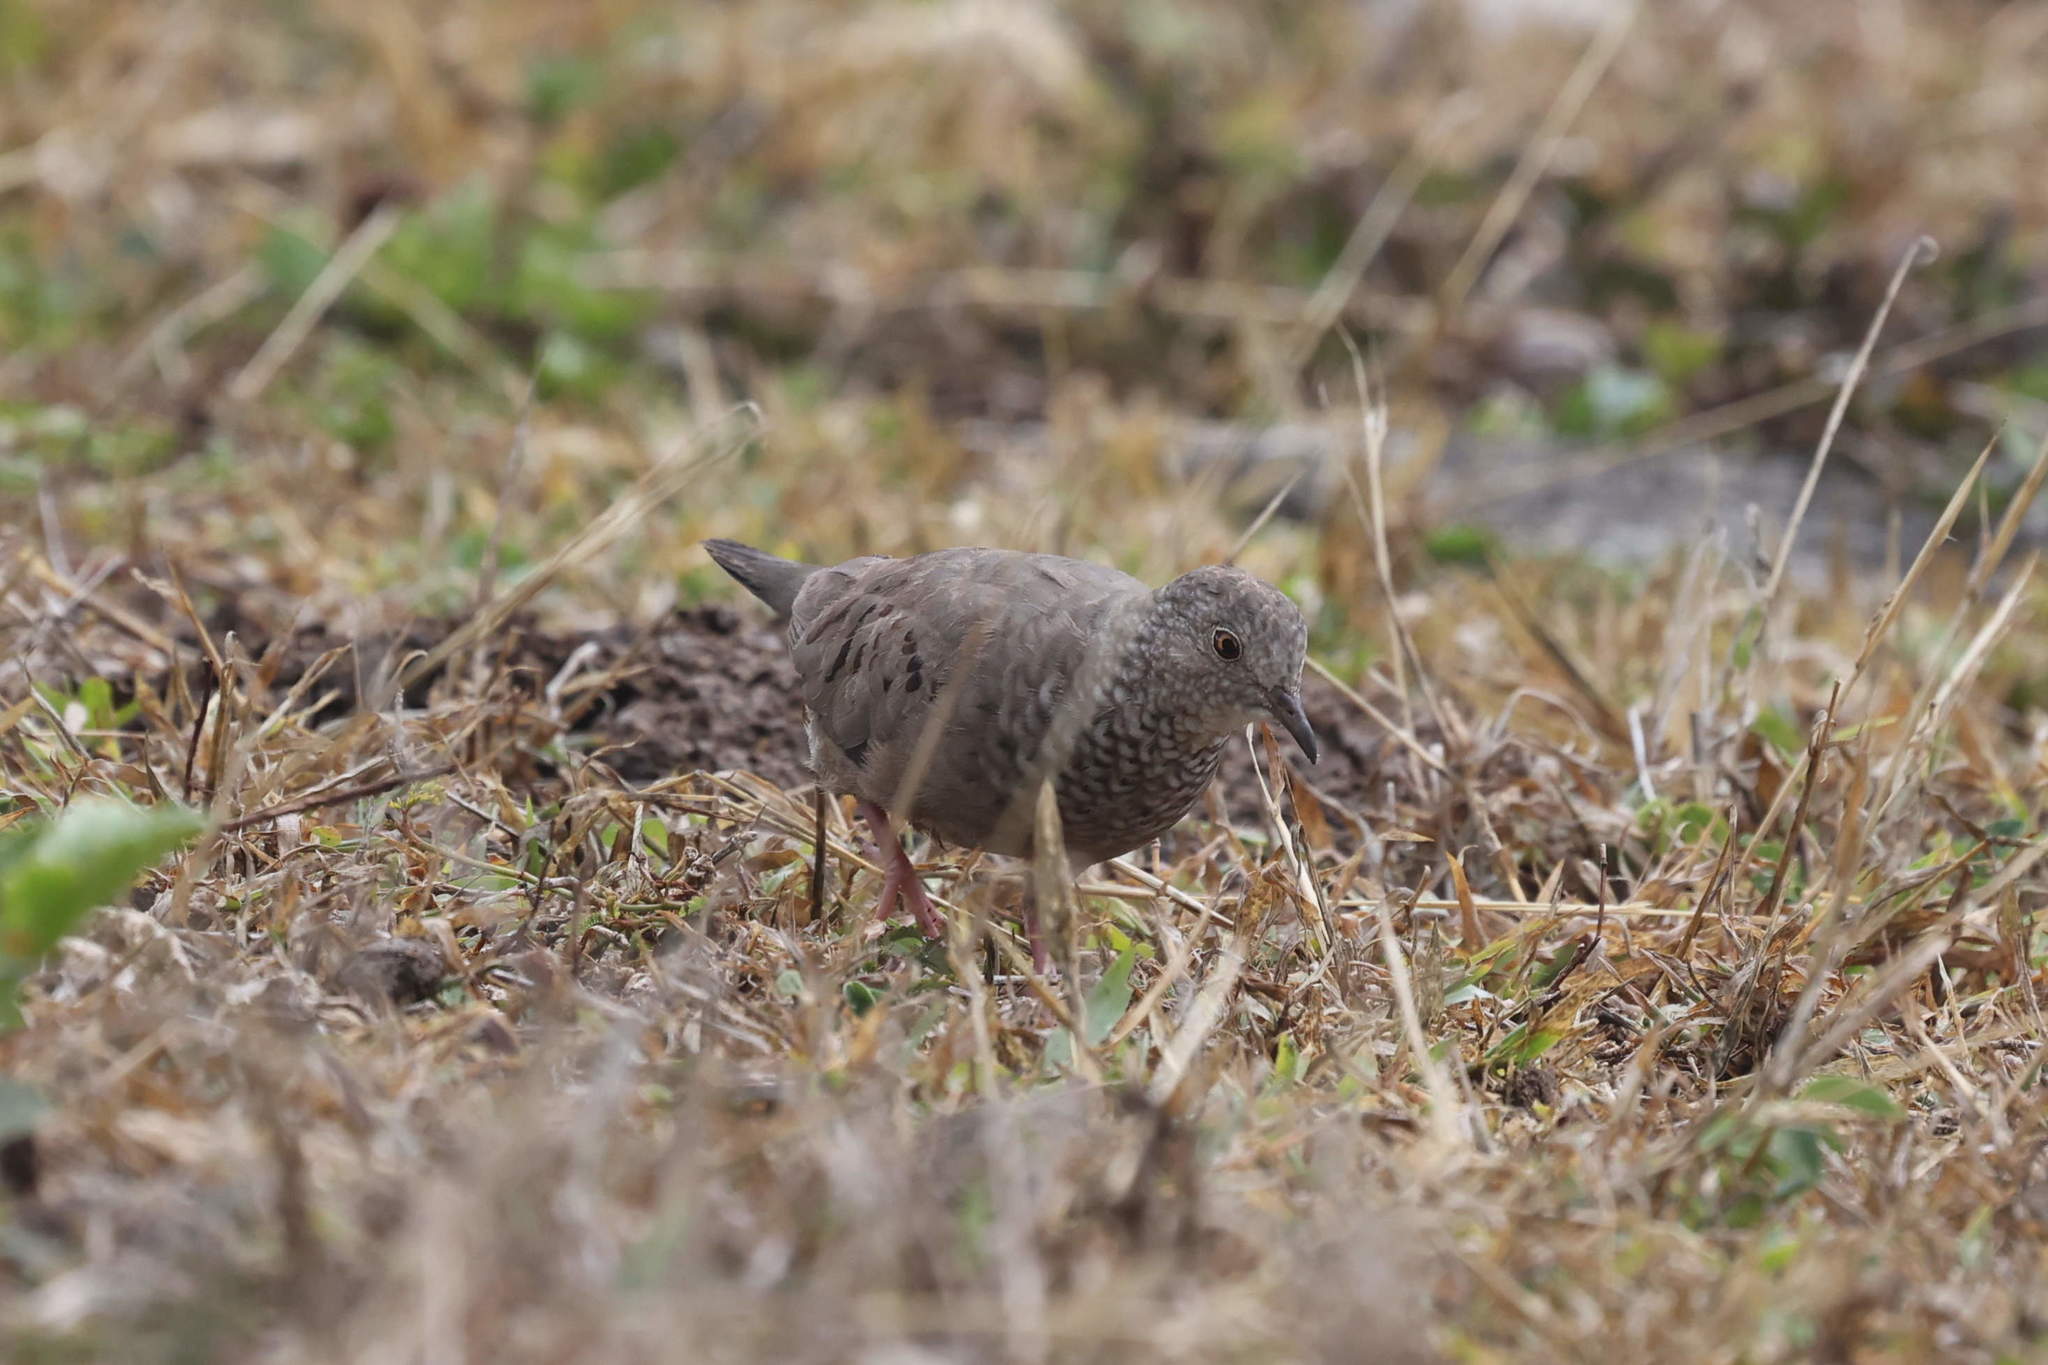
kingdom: Animalia
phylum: Chordata
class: Aves
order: Columbiformes
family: Columbidae
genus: Columbina
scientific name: Columbina passerina
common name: Common ground-dove
